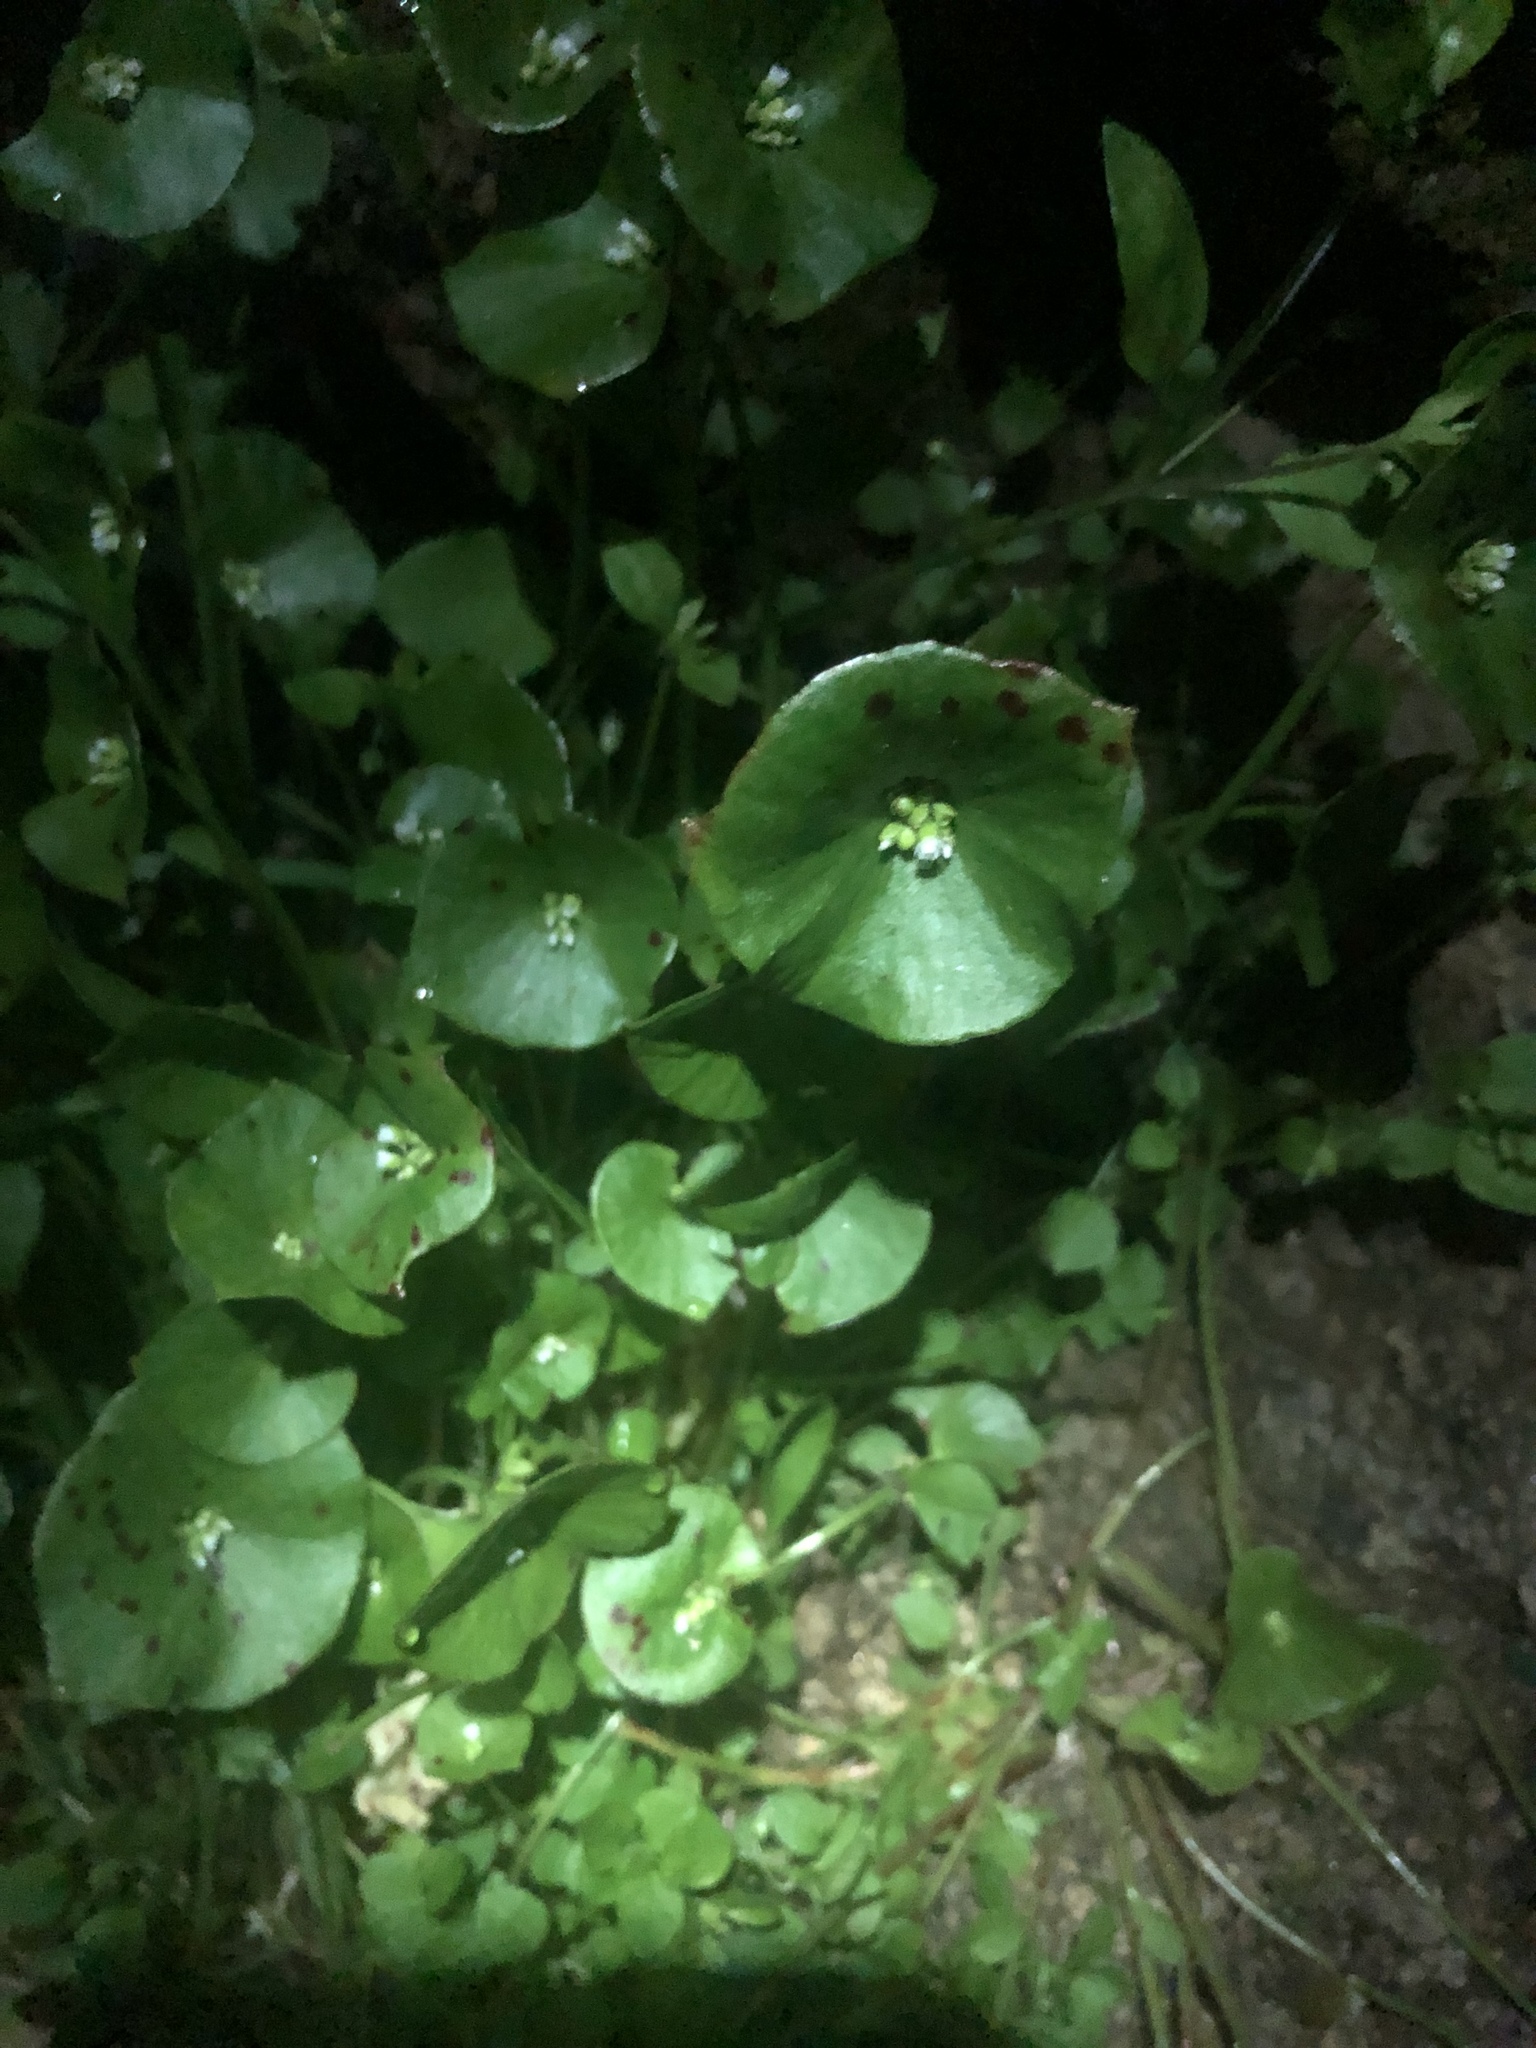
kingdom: Plantae
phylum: Tracheophyta
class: Magnoliopsida
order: Caryophyllales
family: Montiaceae
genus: Claytonia
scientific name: Claytonia perfoliata
